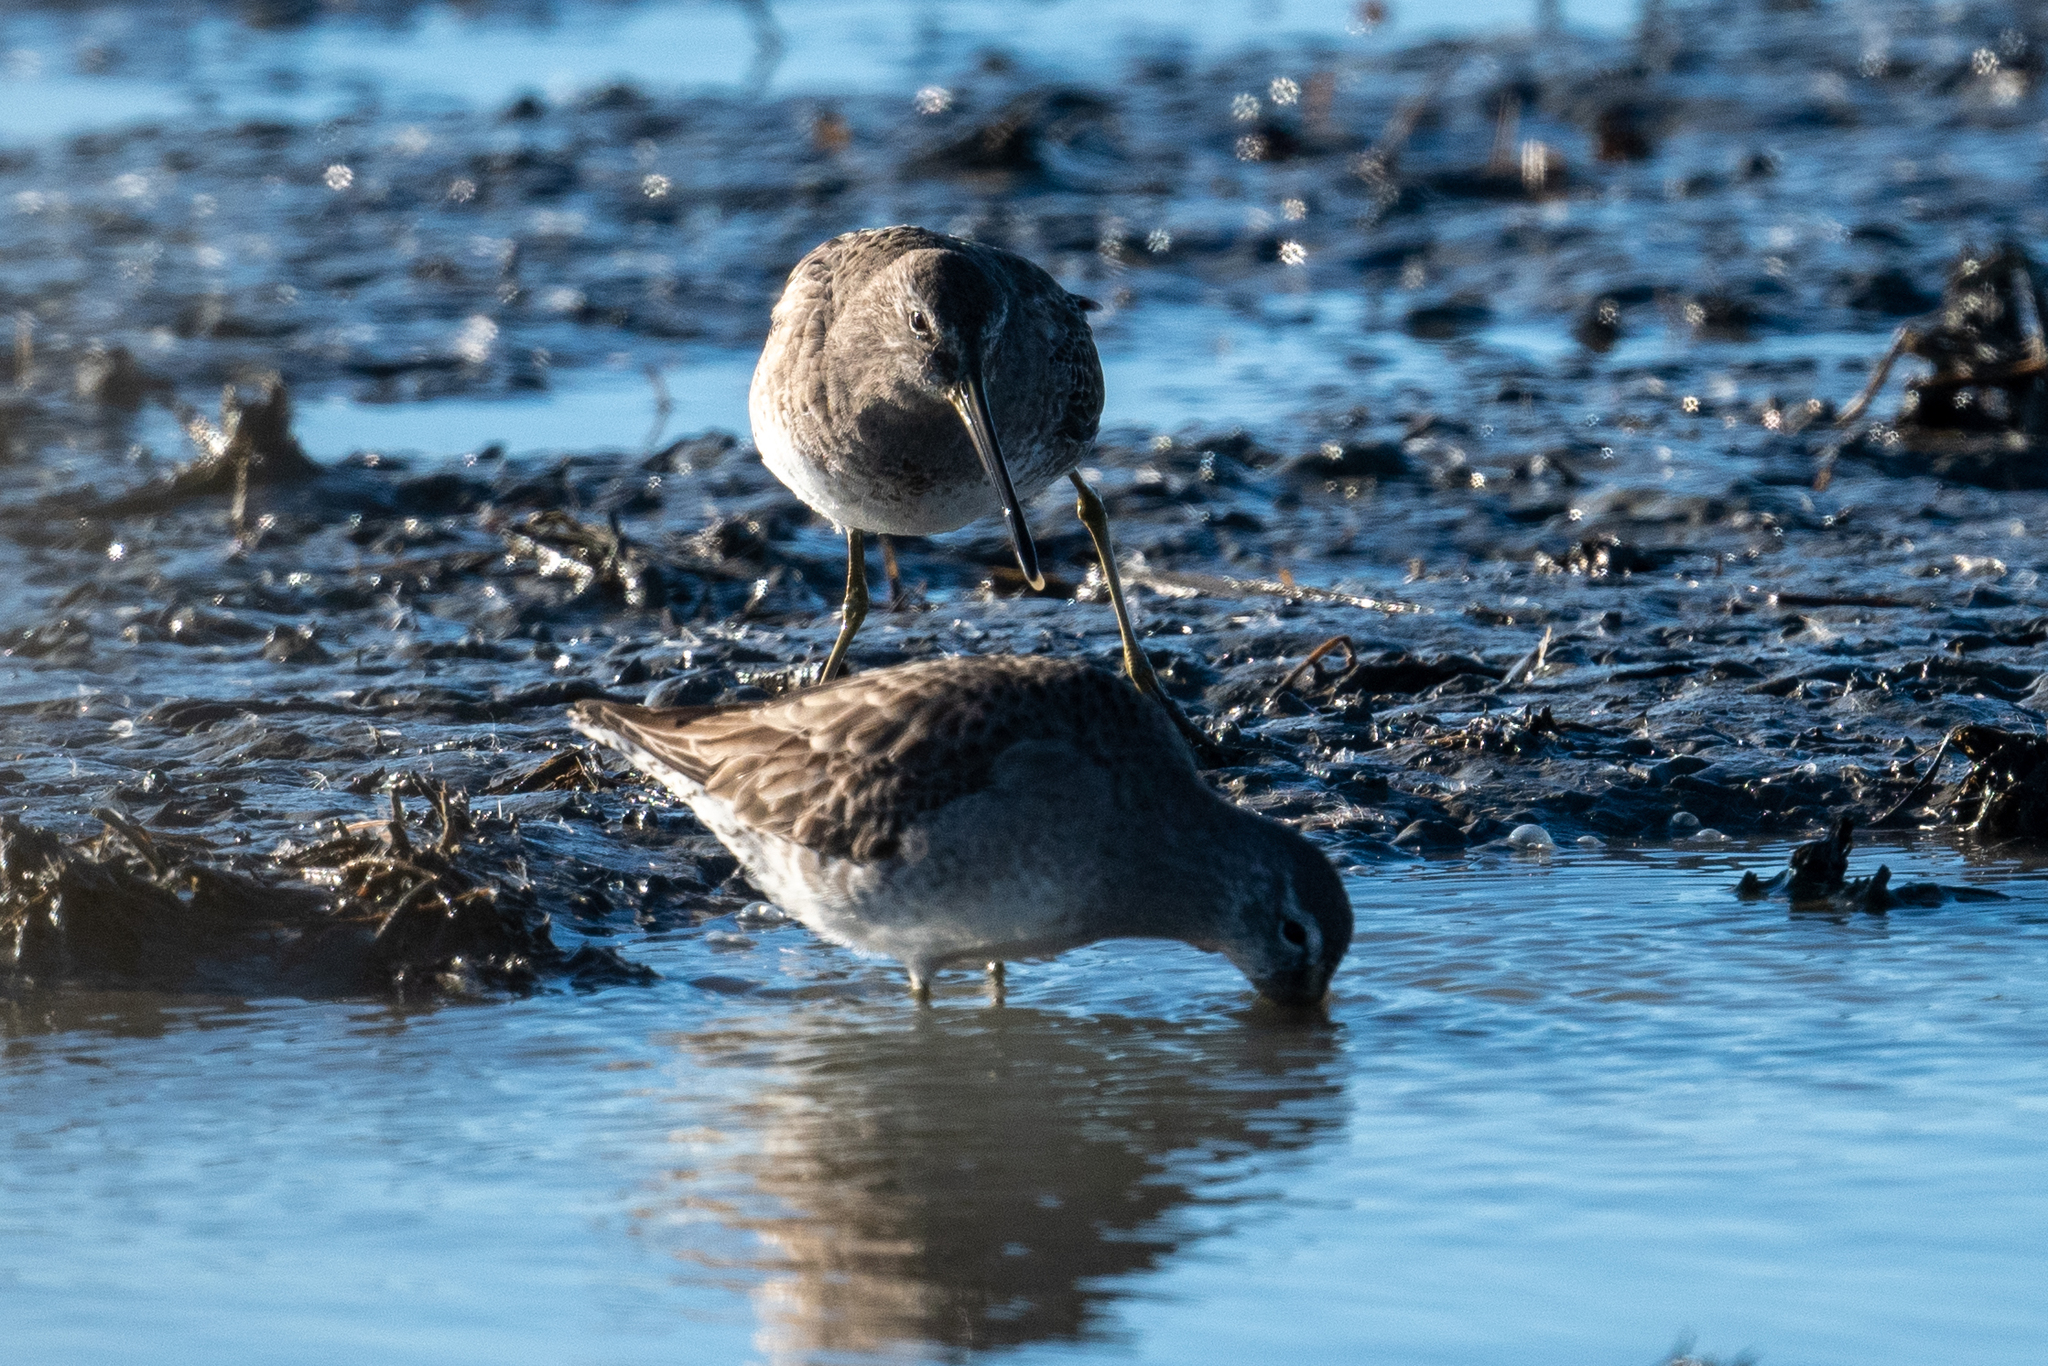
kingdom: Animalia
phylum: Chordata
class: Aves
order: Charadriiformes
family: Scolopacidae
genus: Limnodromus
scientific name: Limnodromus scolopaceus
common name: Long-billed dowitcher
